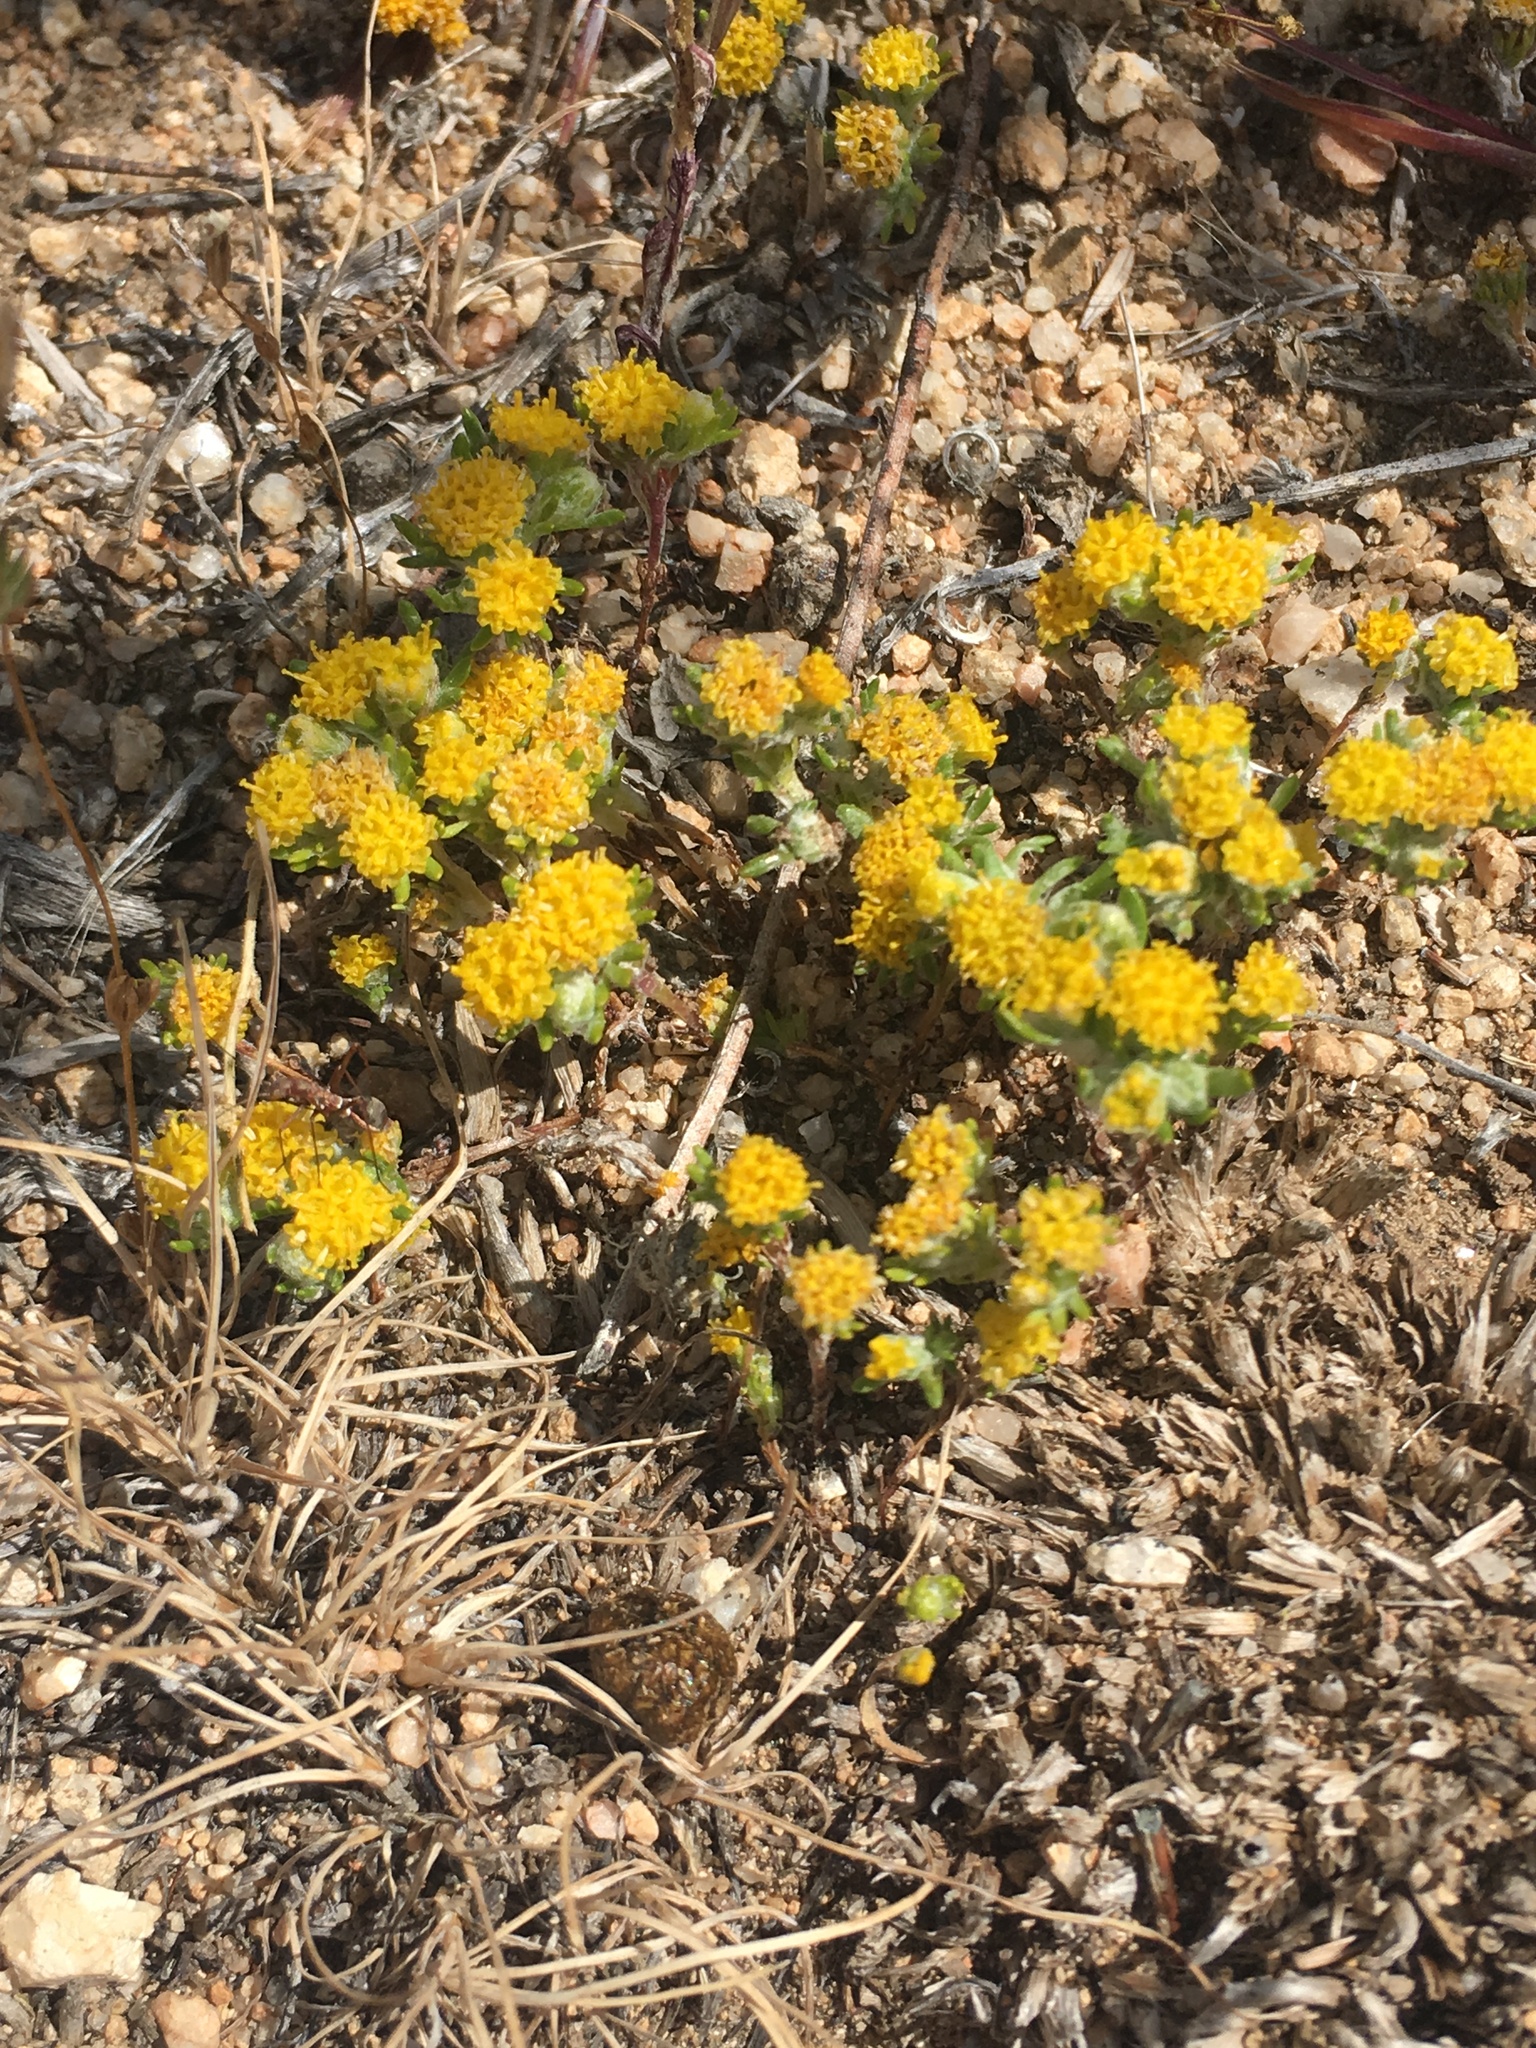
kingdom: Plantae
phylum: Tracheophyta
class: Magnoliopsida
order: Asterales
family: Asteraceae
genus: Eriophyllum
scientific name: Eriophyllum pringlei
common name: Pringle's woolly-sunflower
